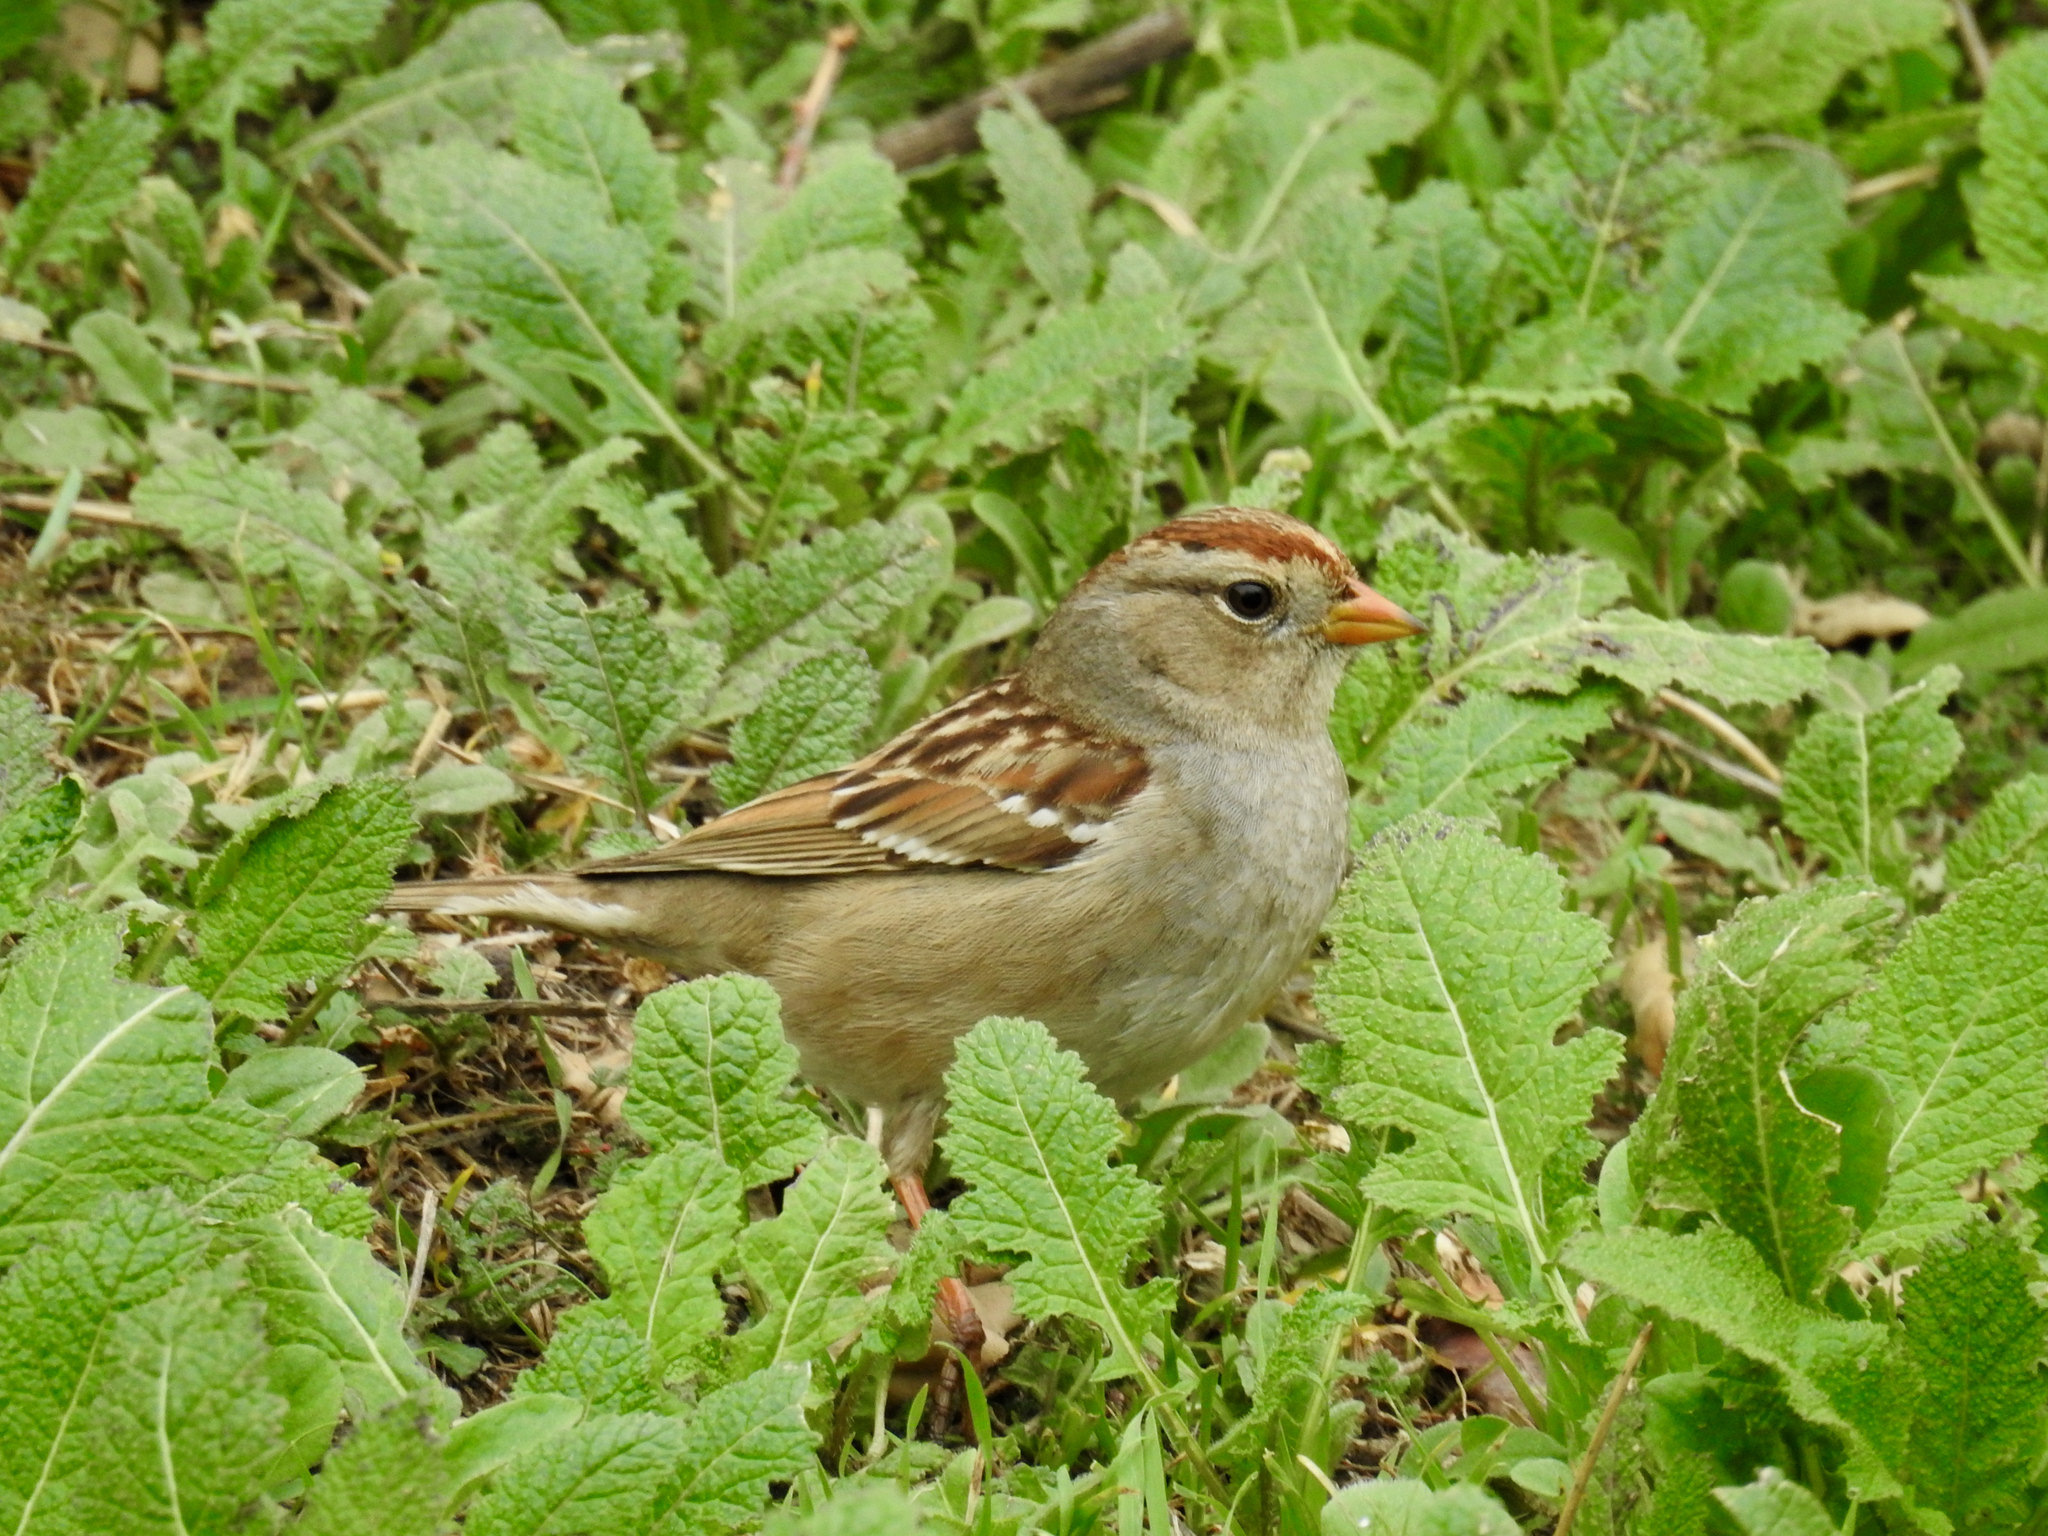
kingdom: Animalia
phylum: Chordata
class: Aves
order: Passeriformes
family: Passerellidae
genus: Zonotrichia
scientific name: Zonotrichia leucophrys
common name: White-crowned sparrow
